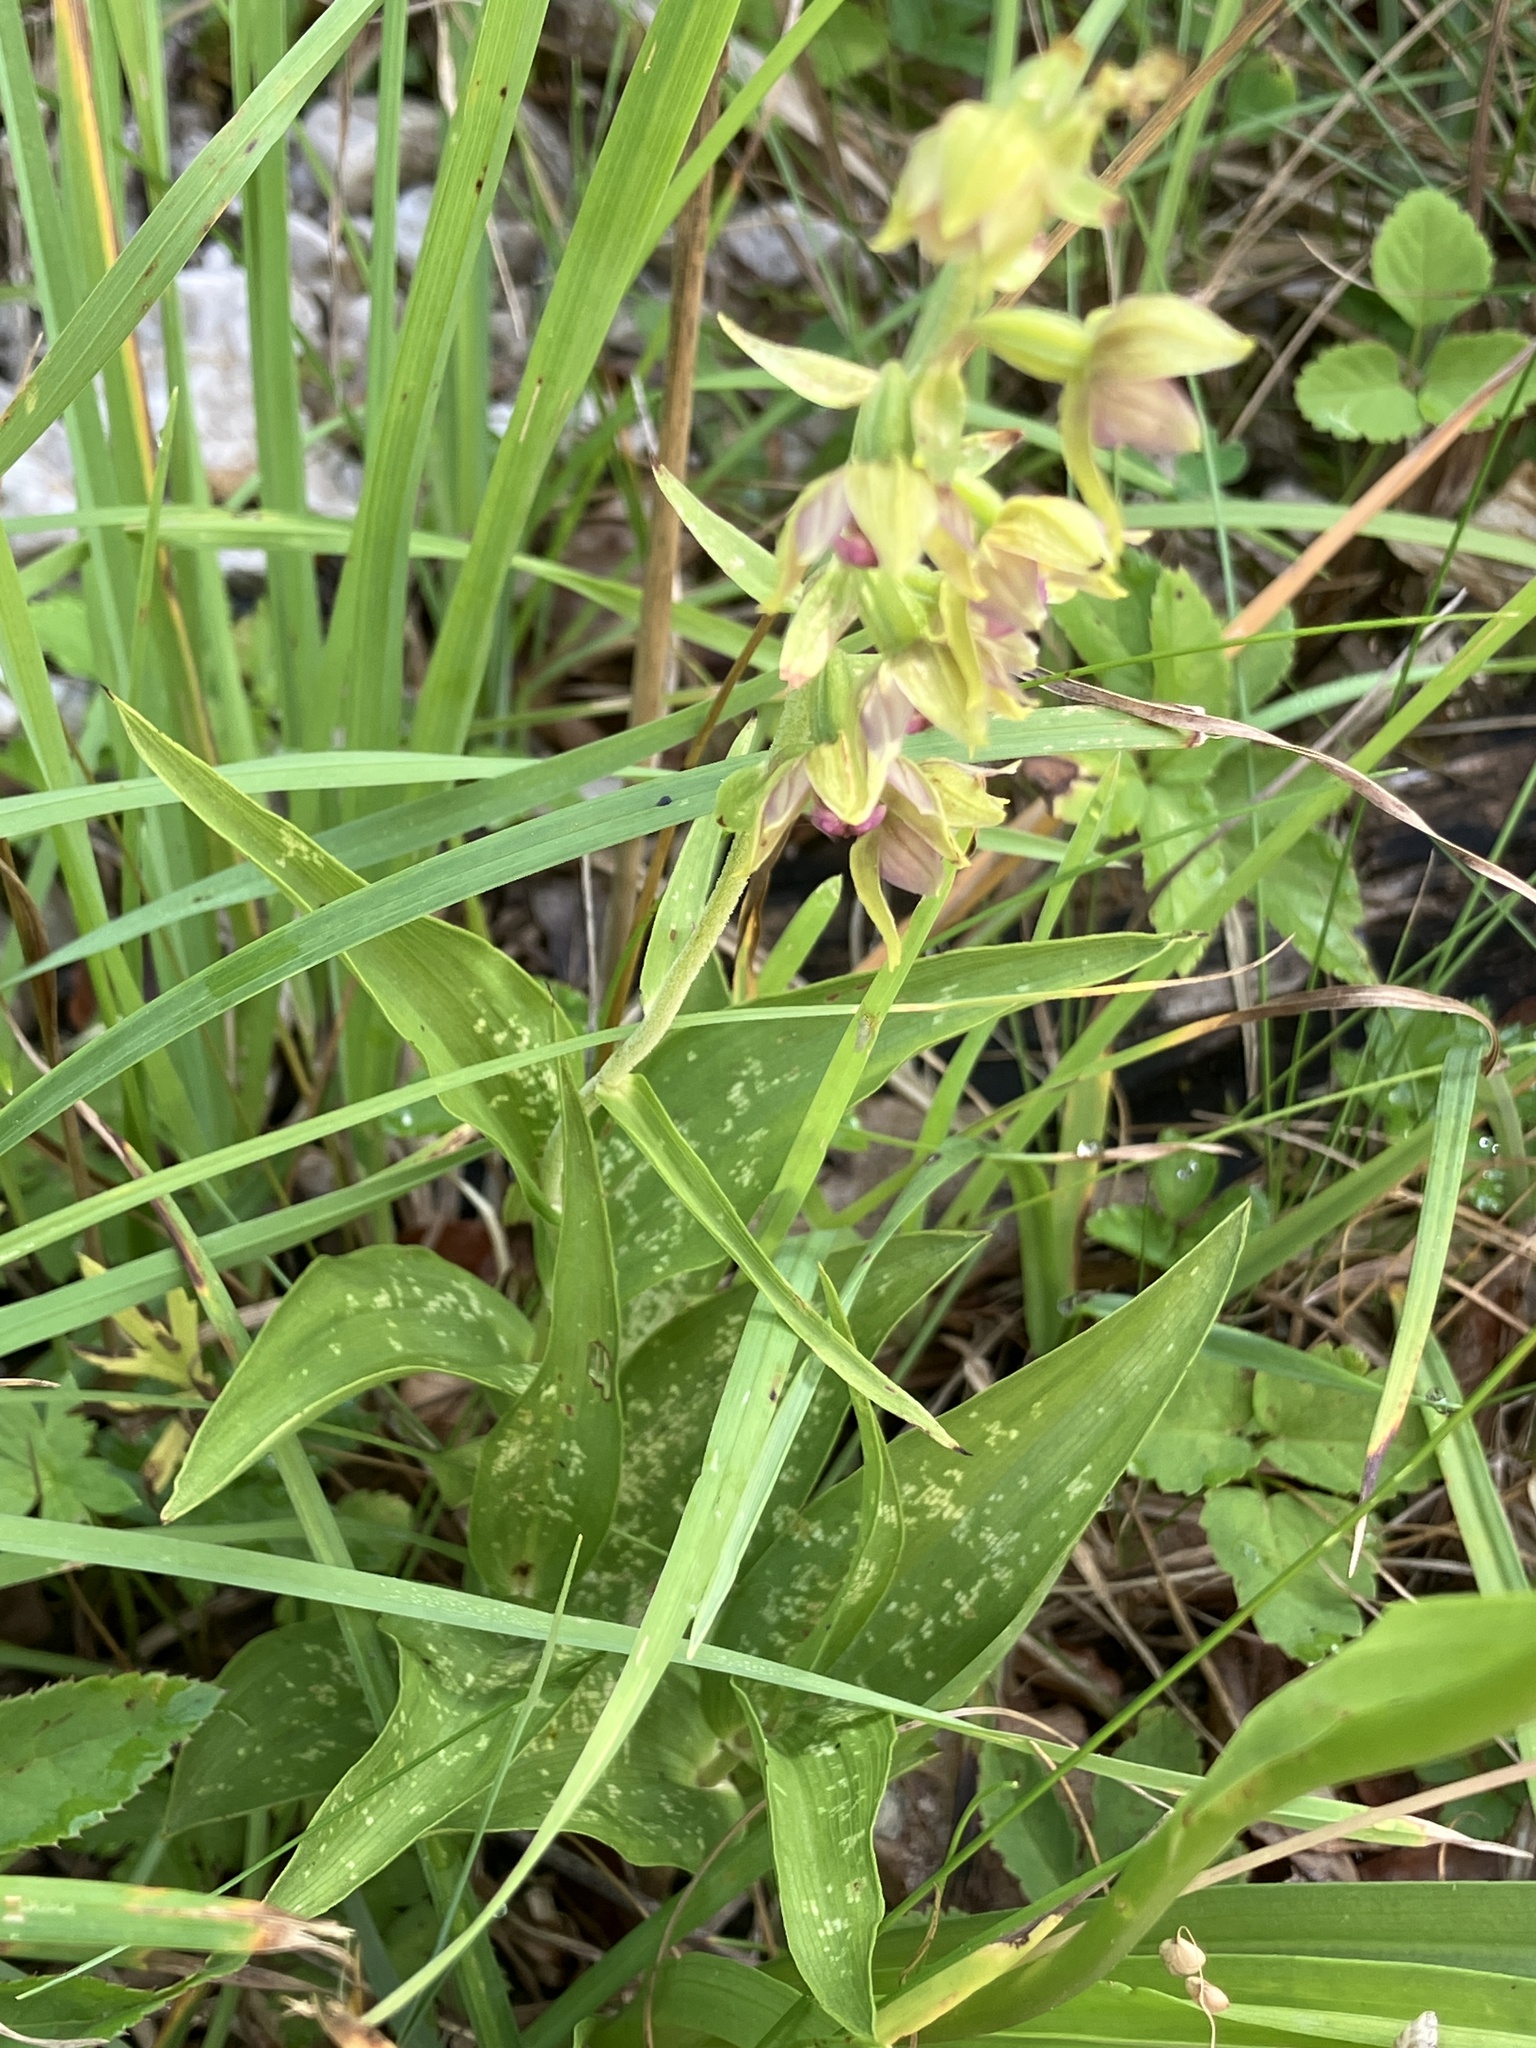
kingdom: Plantae
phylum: Tracheophyta
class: Liliopsida
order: Asparagales
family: Orchidaceae
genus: Epipactis
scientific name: Epipactis helleborine
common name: Broad-leaved helleborine
